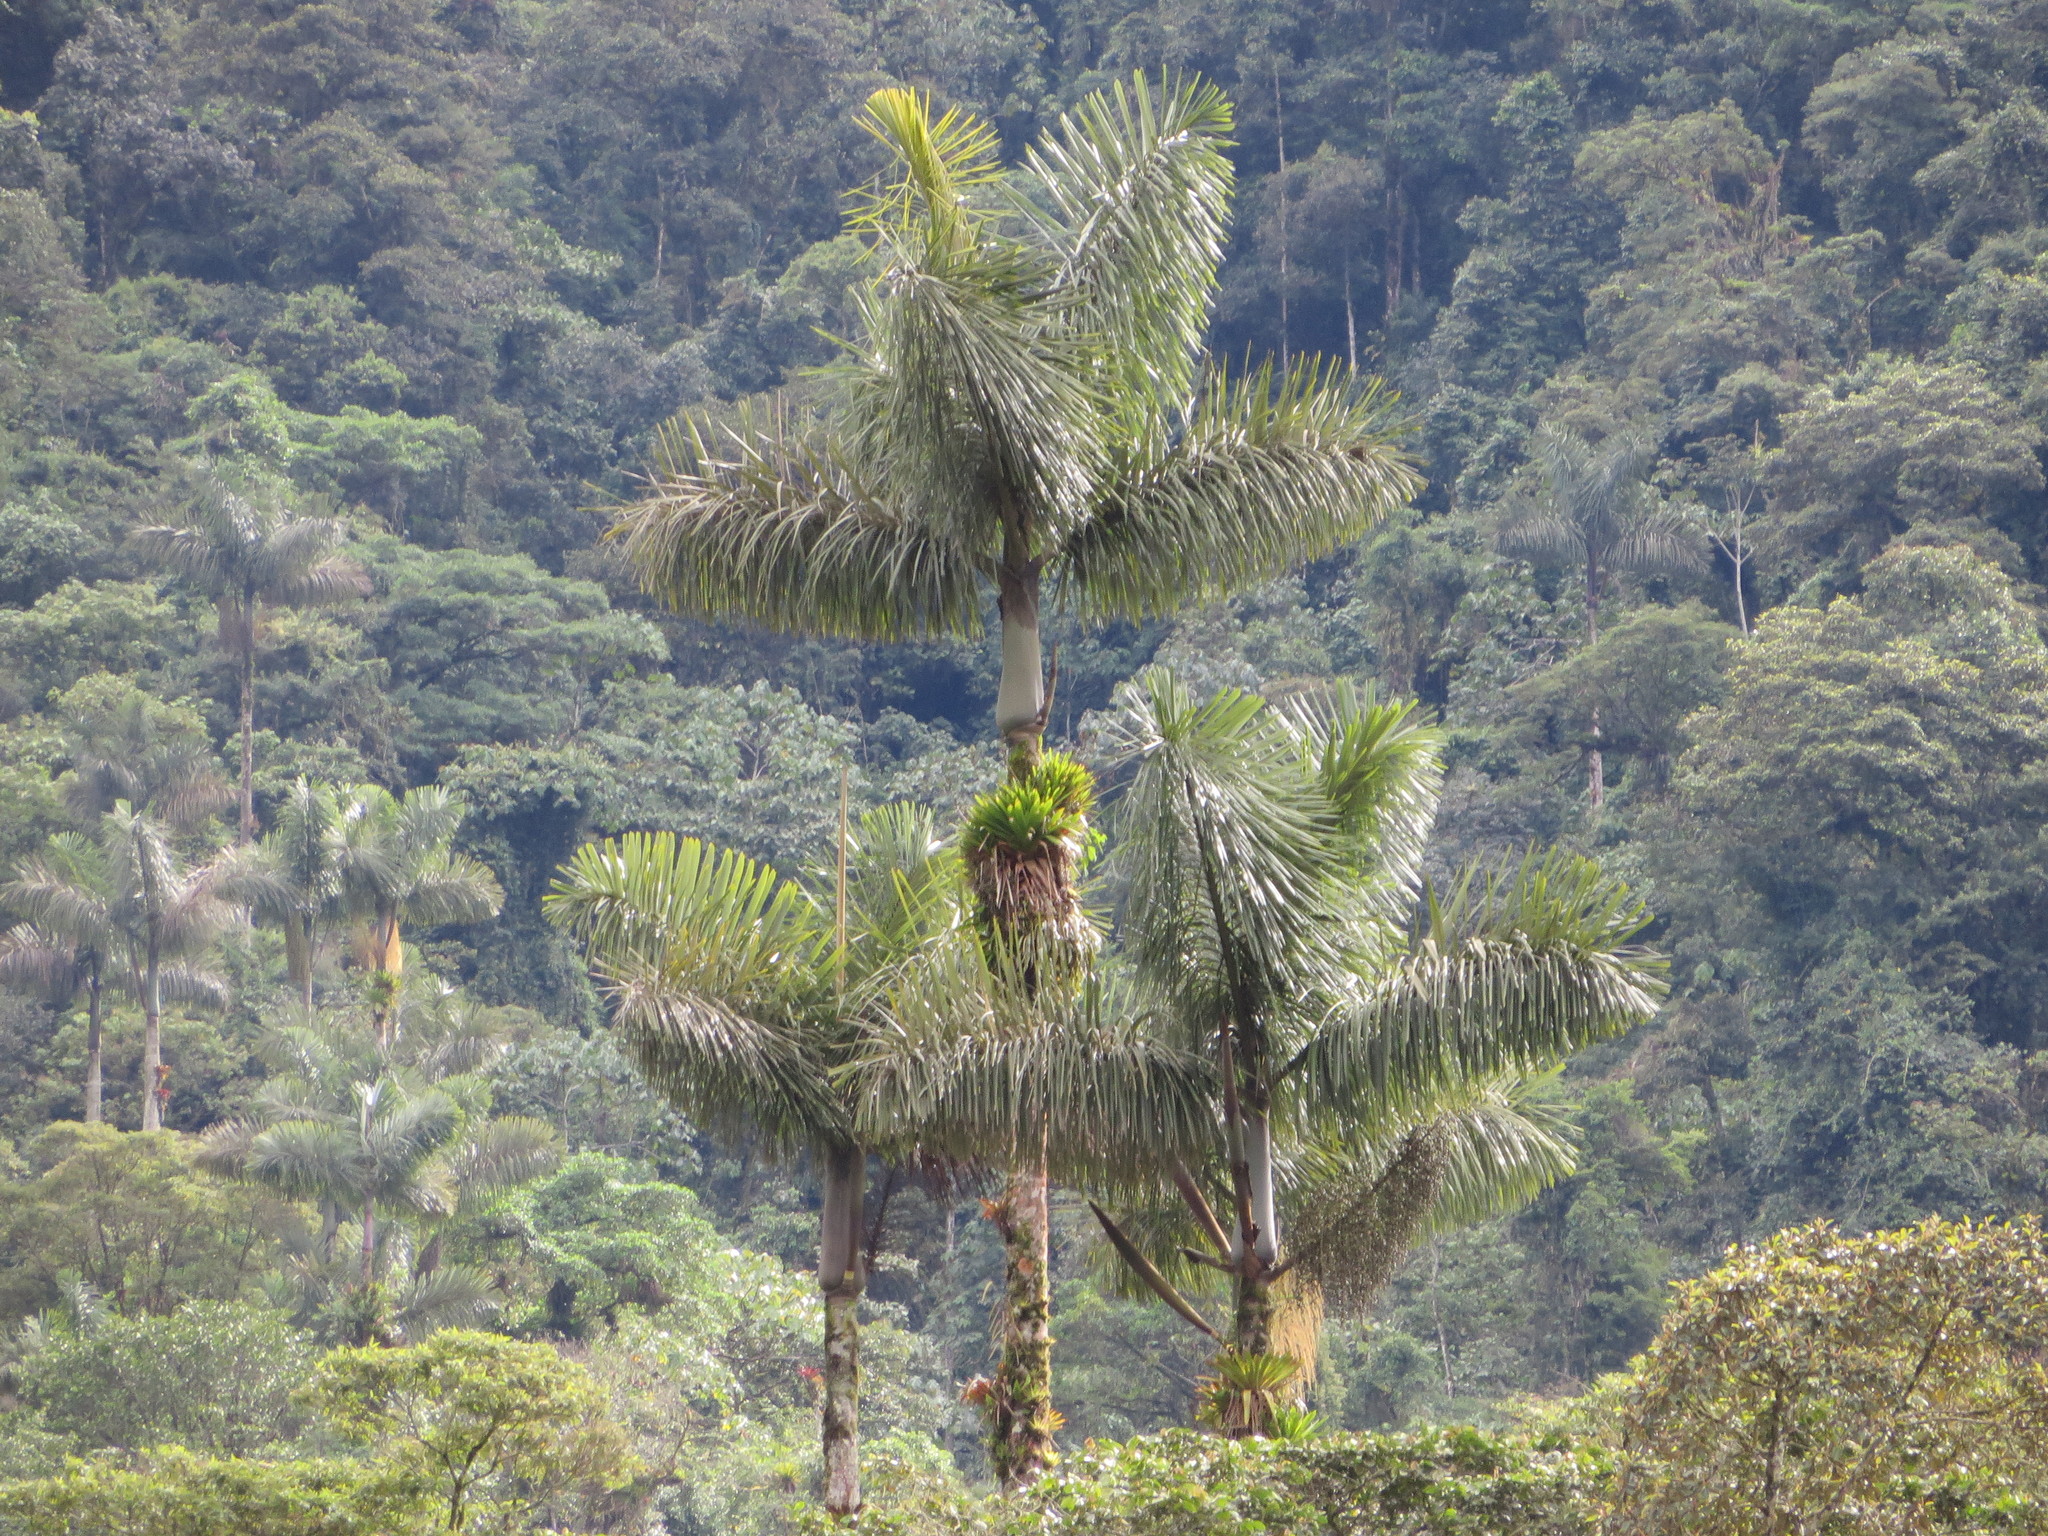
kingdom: Plantae
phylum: Tracheophyta
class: Liliopsida
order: Arecales
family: Arecaceae
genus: Dictyocaryum
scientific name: Dictyocaryum lamarckianum
